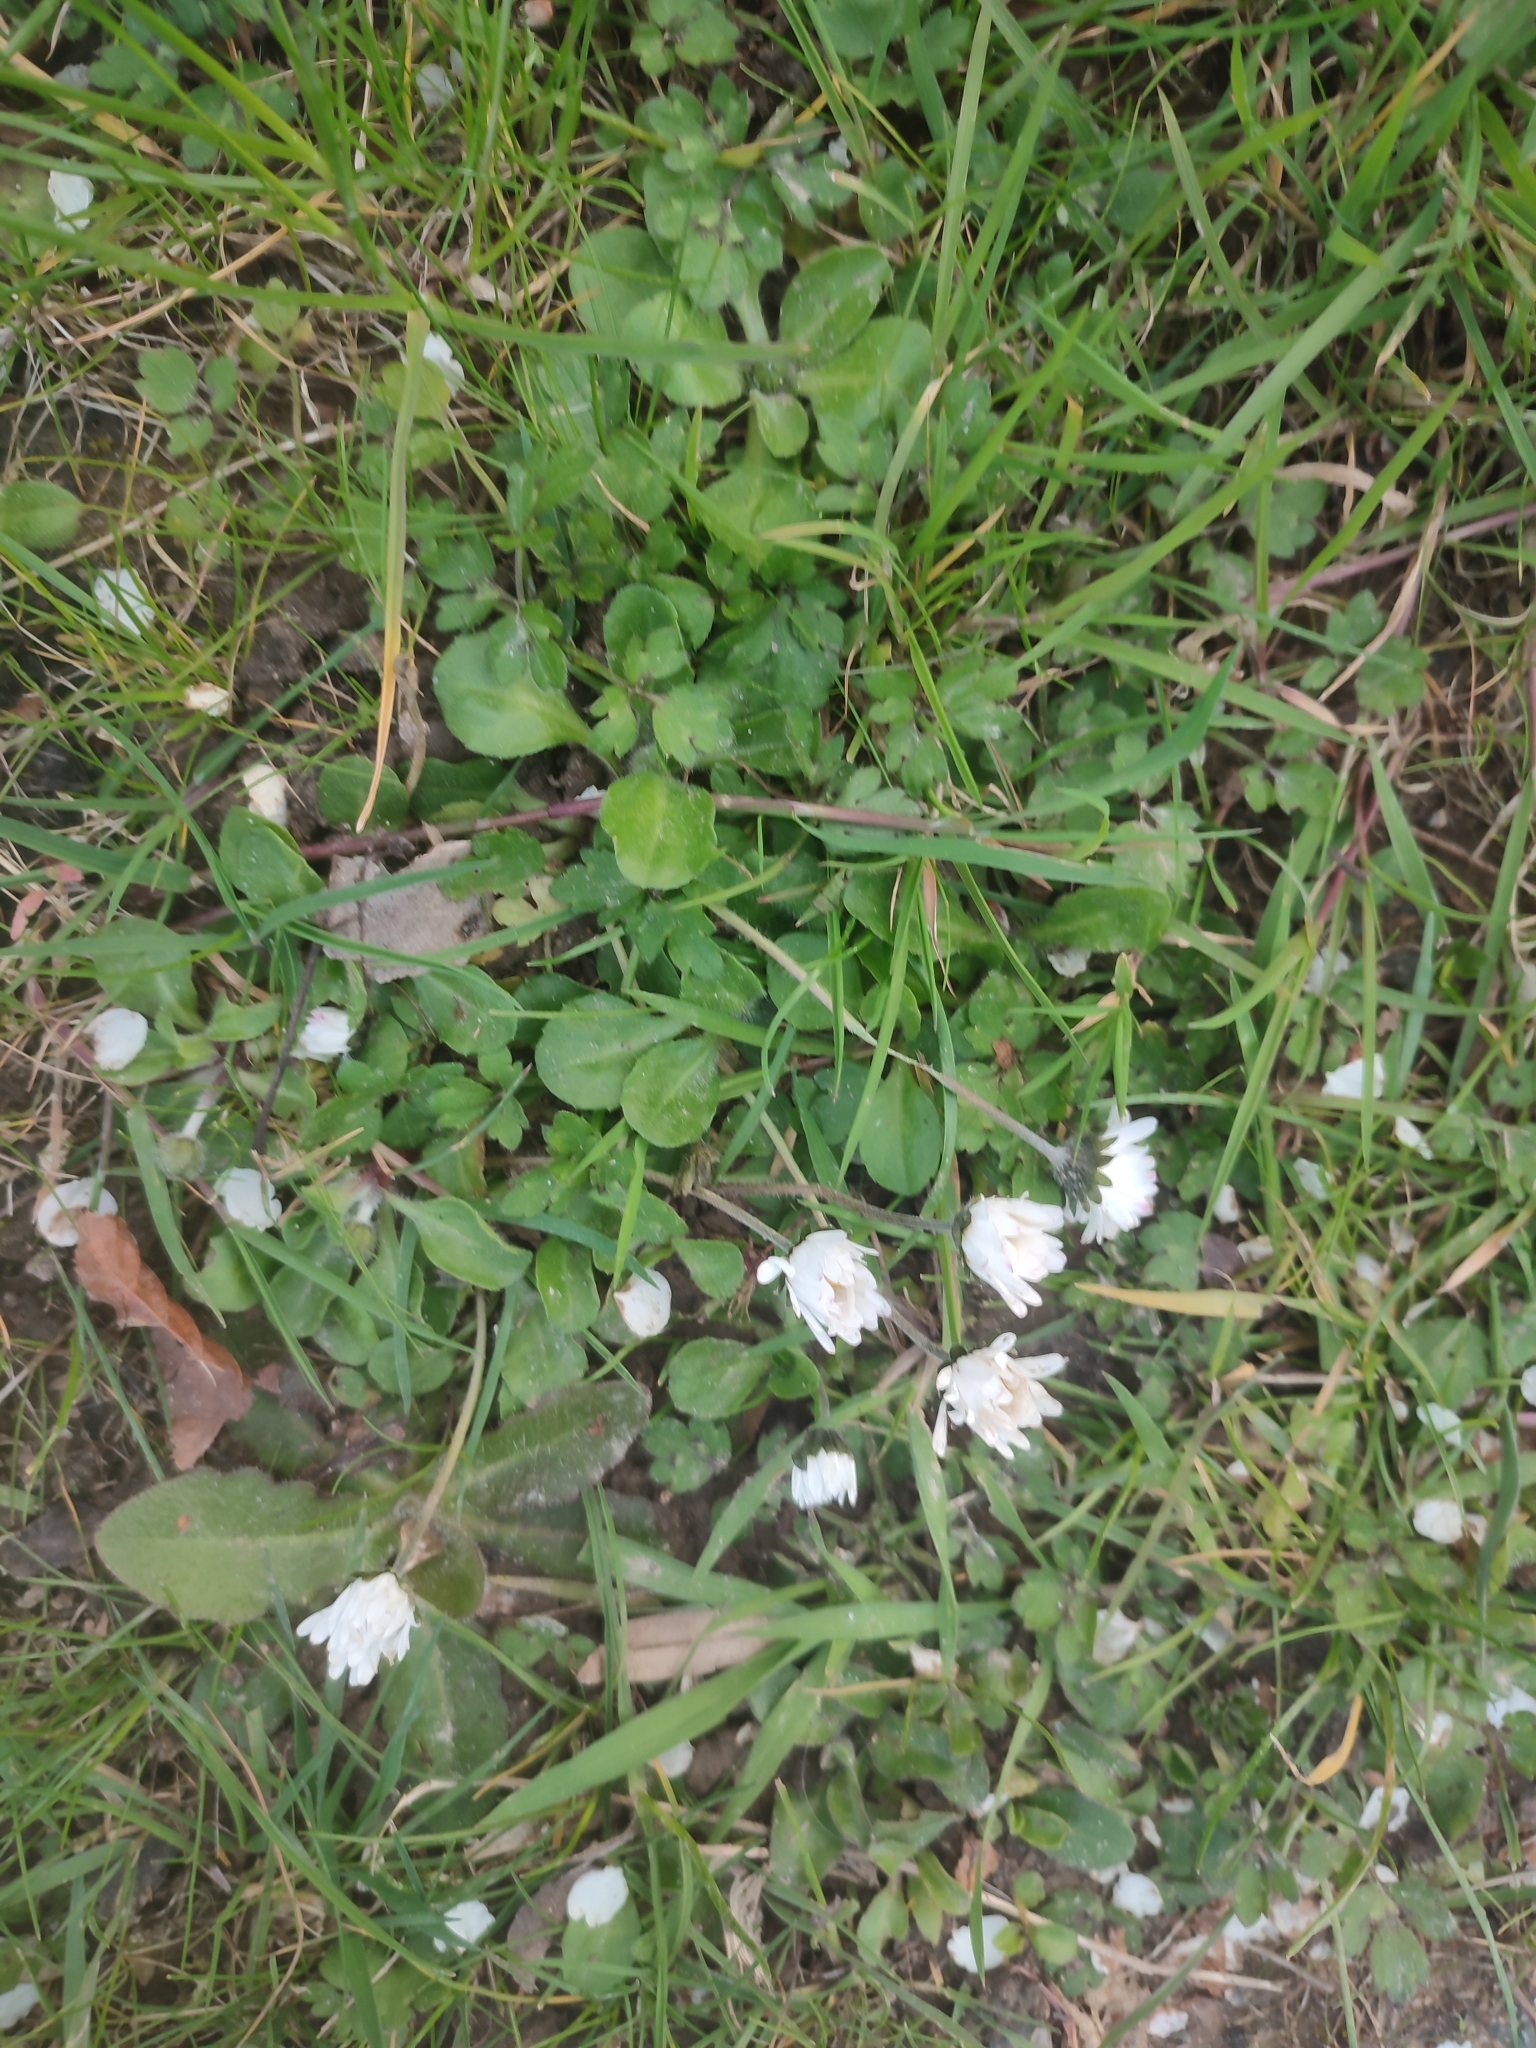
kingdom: Plantae
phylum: Tracheophyta
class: Magnoliopsida
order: Asterales
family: Asteraceae
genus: Bellis
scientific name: Bellis perennis
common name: Lawndaisy
